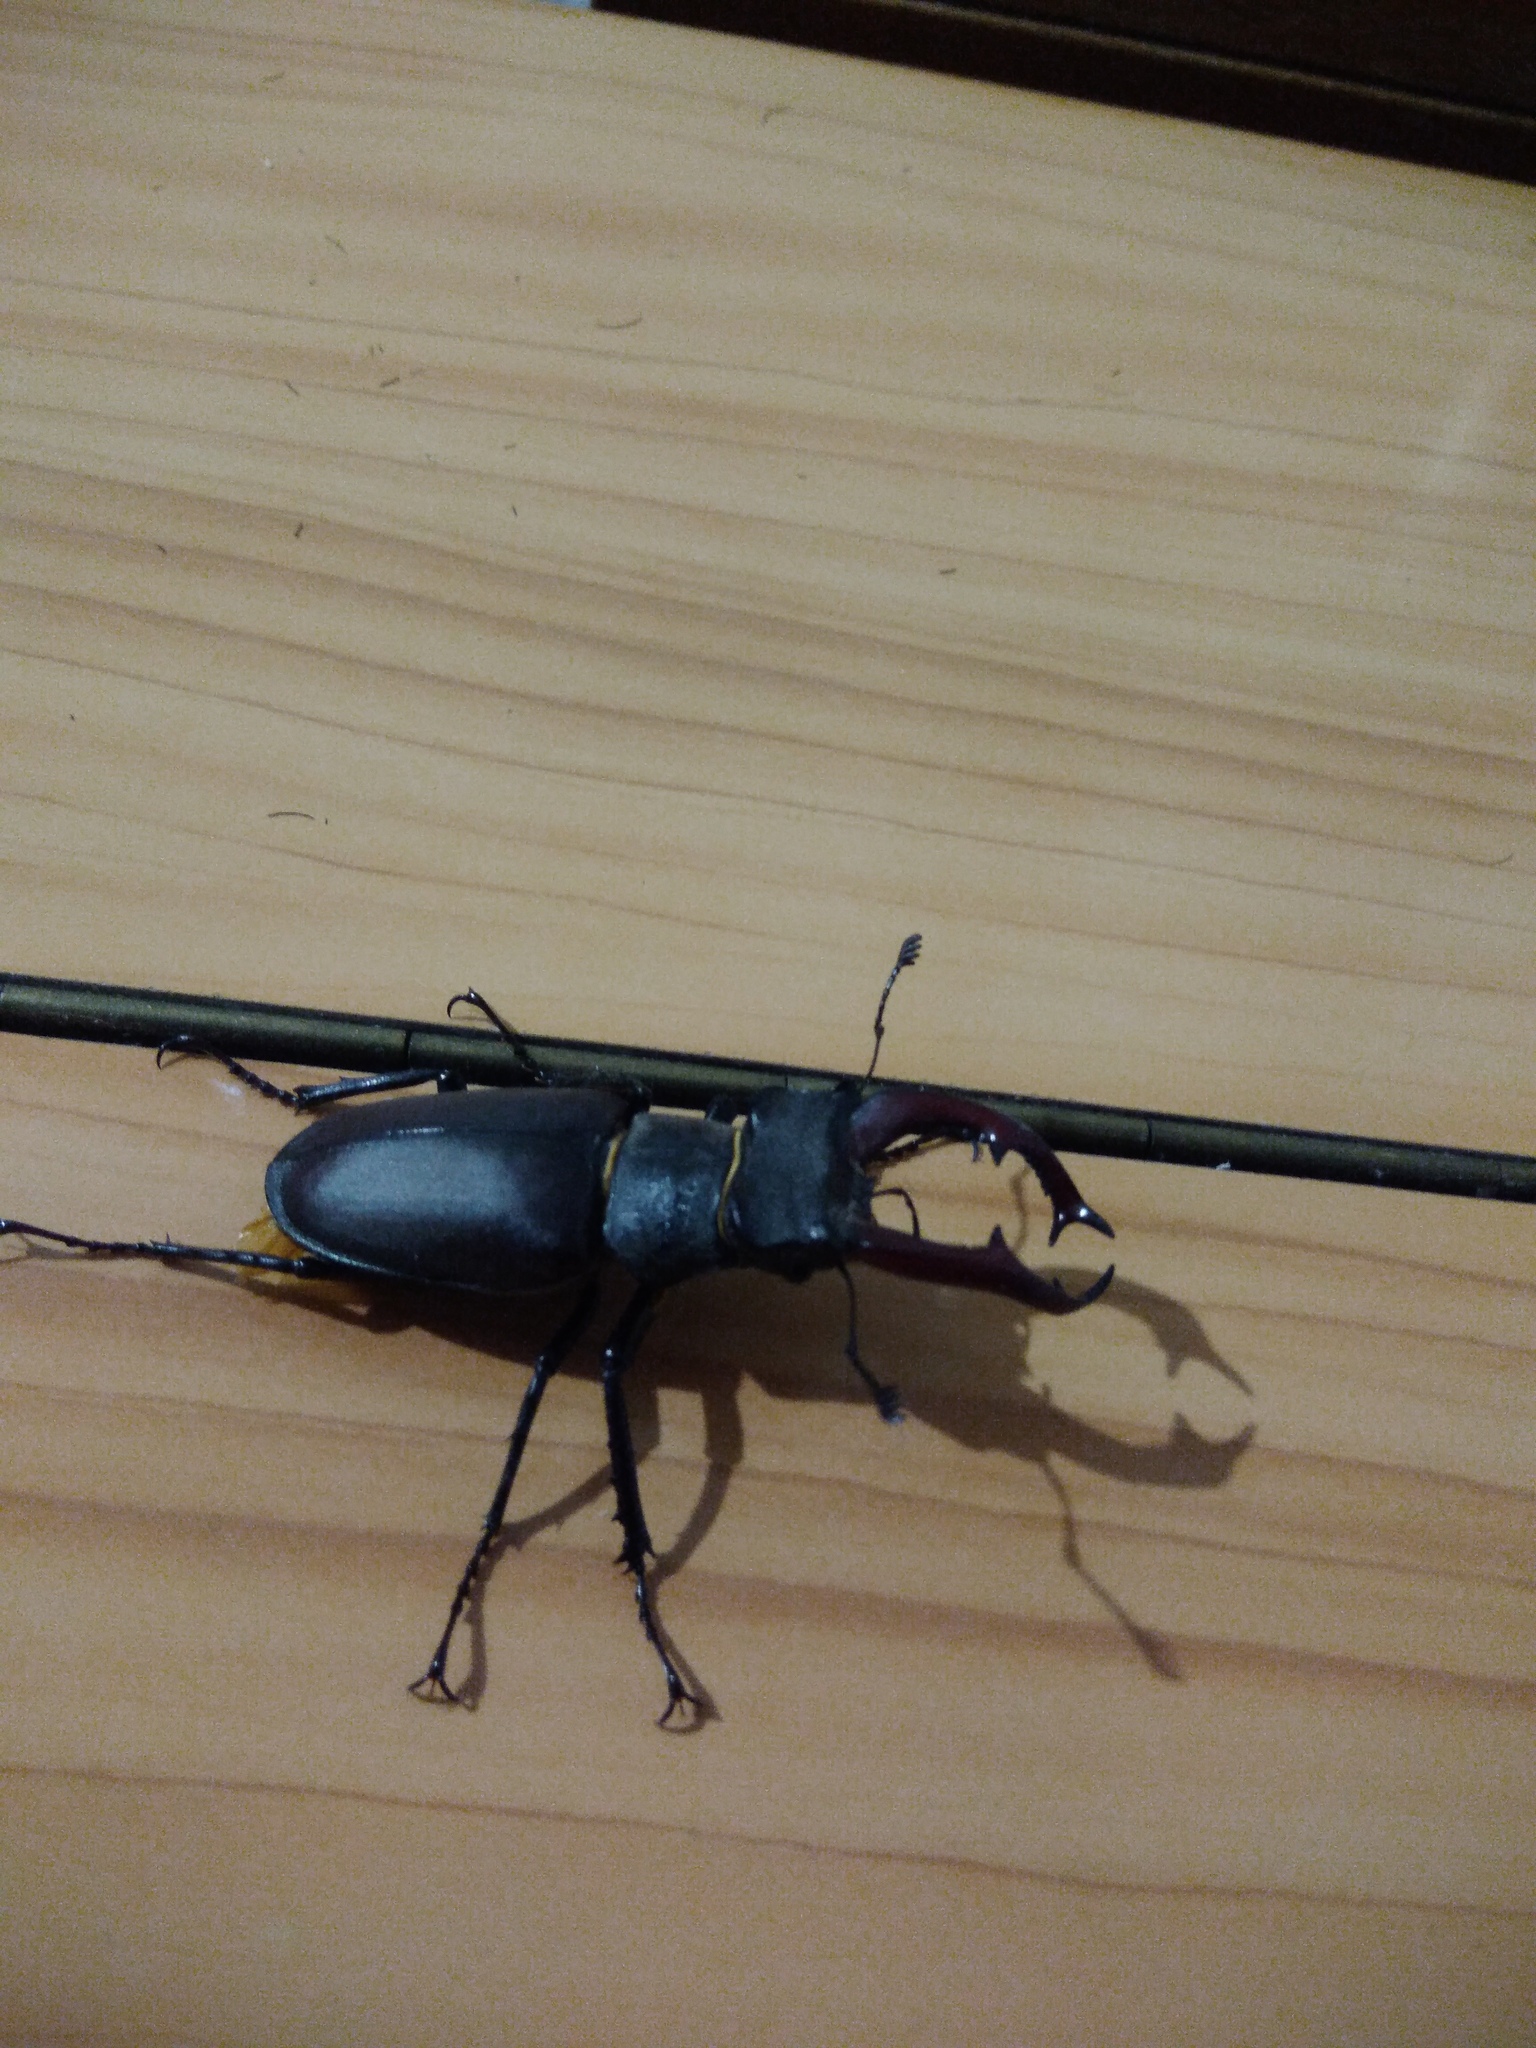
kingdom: Animalia
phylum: Arthropoda
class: Insecta
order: Coleoptera
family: Lucanidae
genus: Lucanus
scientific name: Lucanus cervus
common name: Stag beetle
